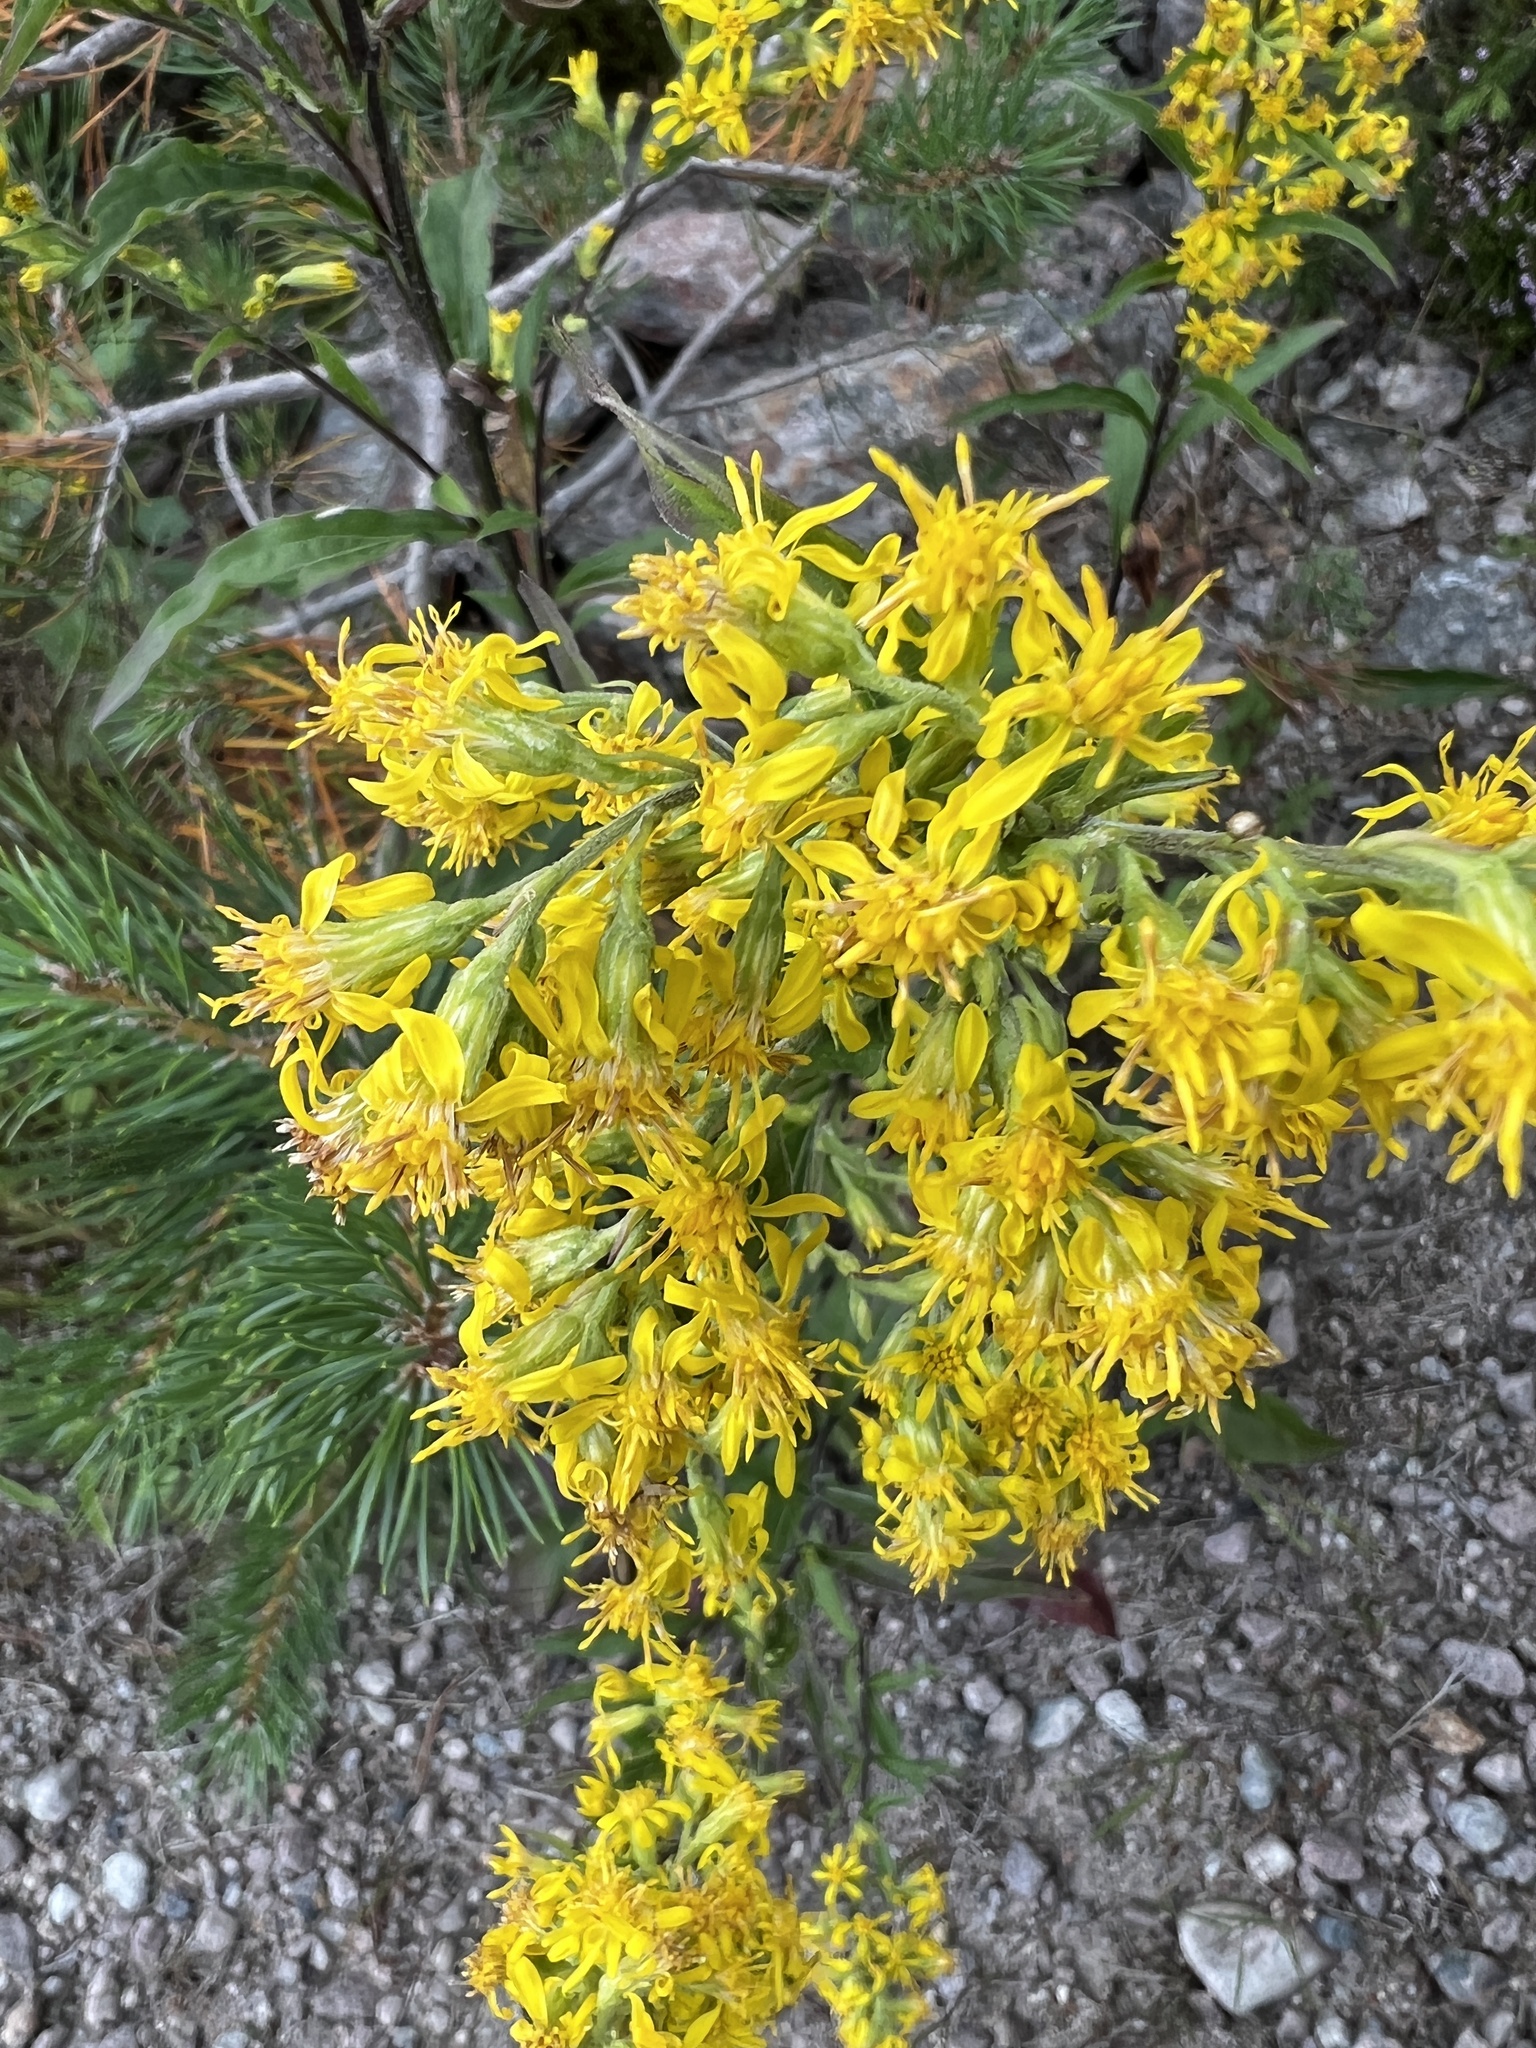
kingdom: Plantae
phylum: Tracheophyta
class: Magnoliopsida
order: Asterales
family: Asteraceae
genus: Solidago
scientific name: Solidago virgaurea
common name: Goldenrod
